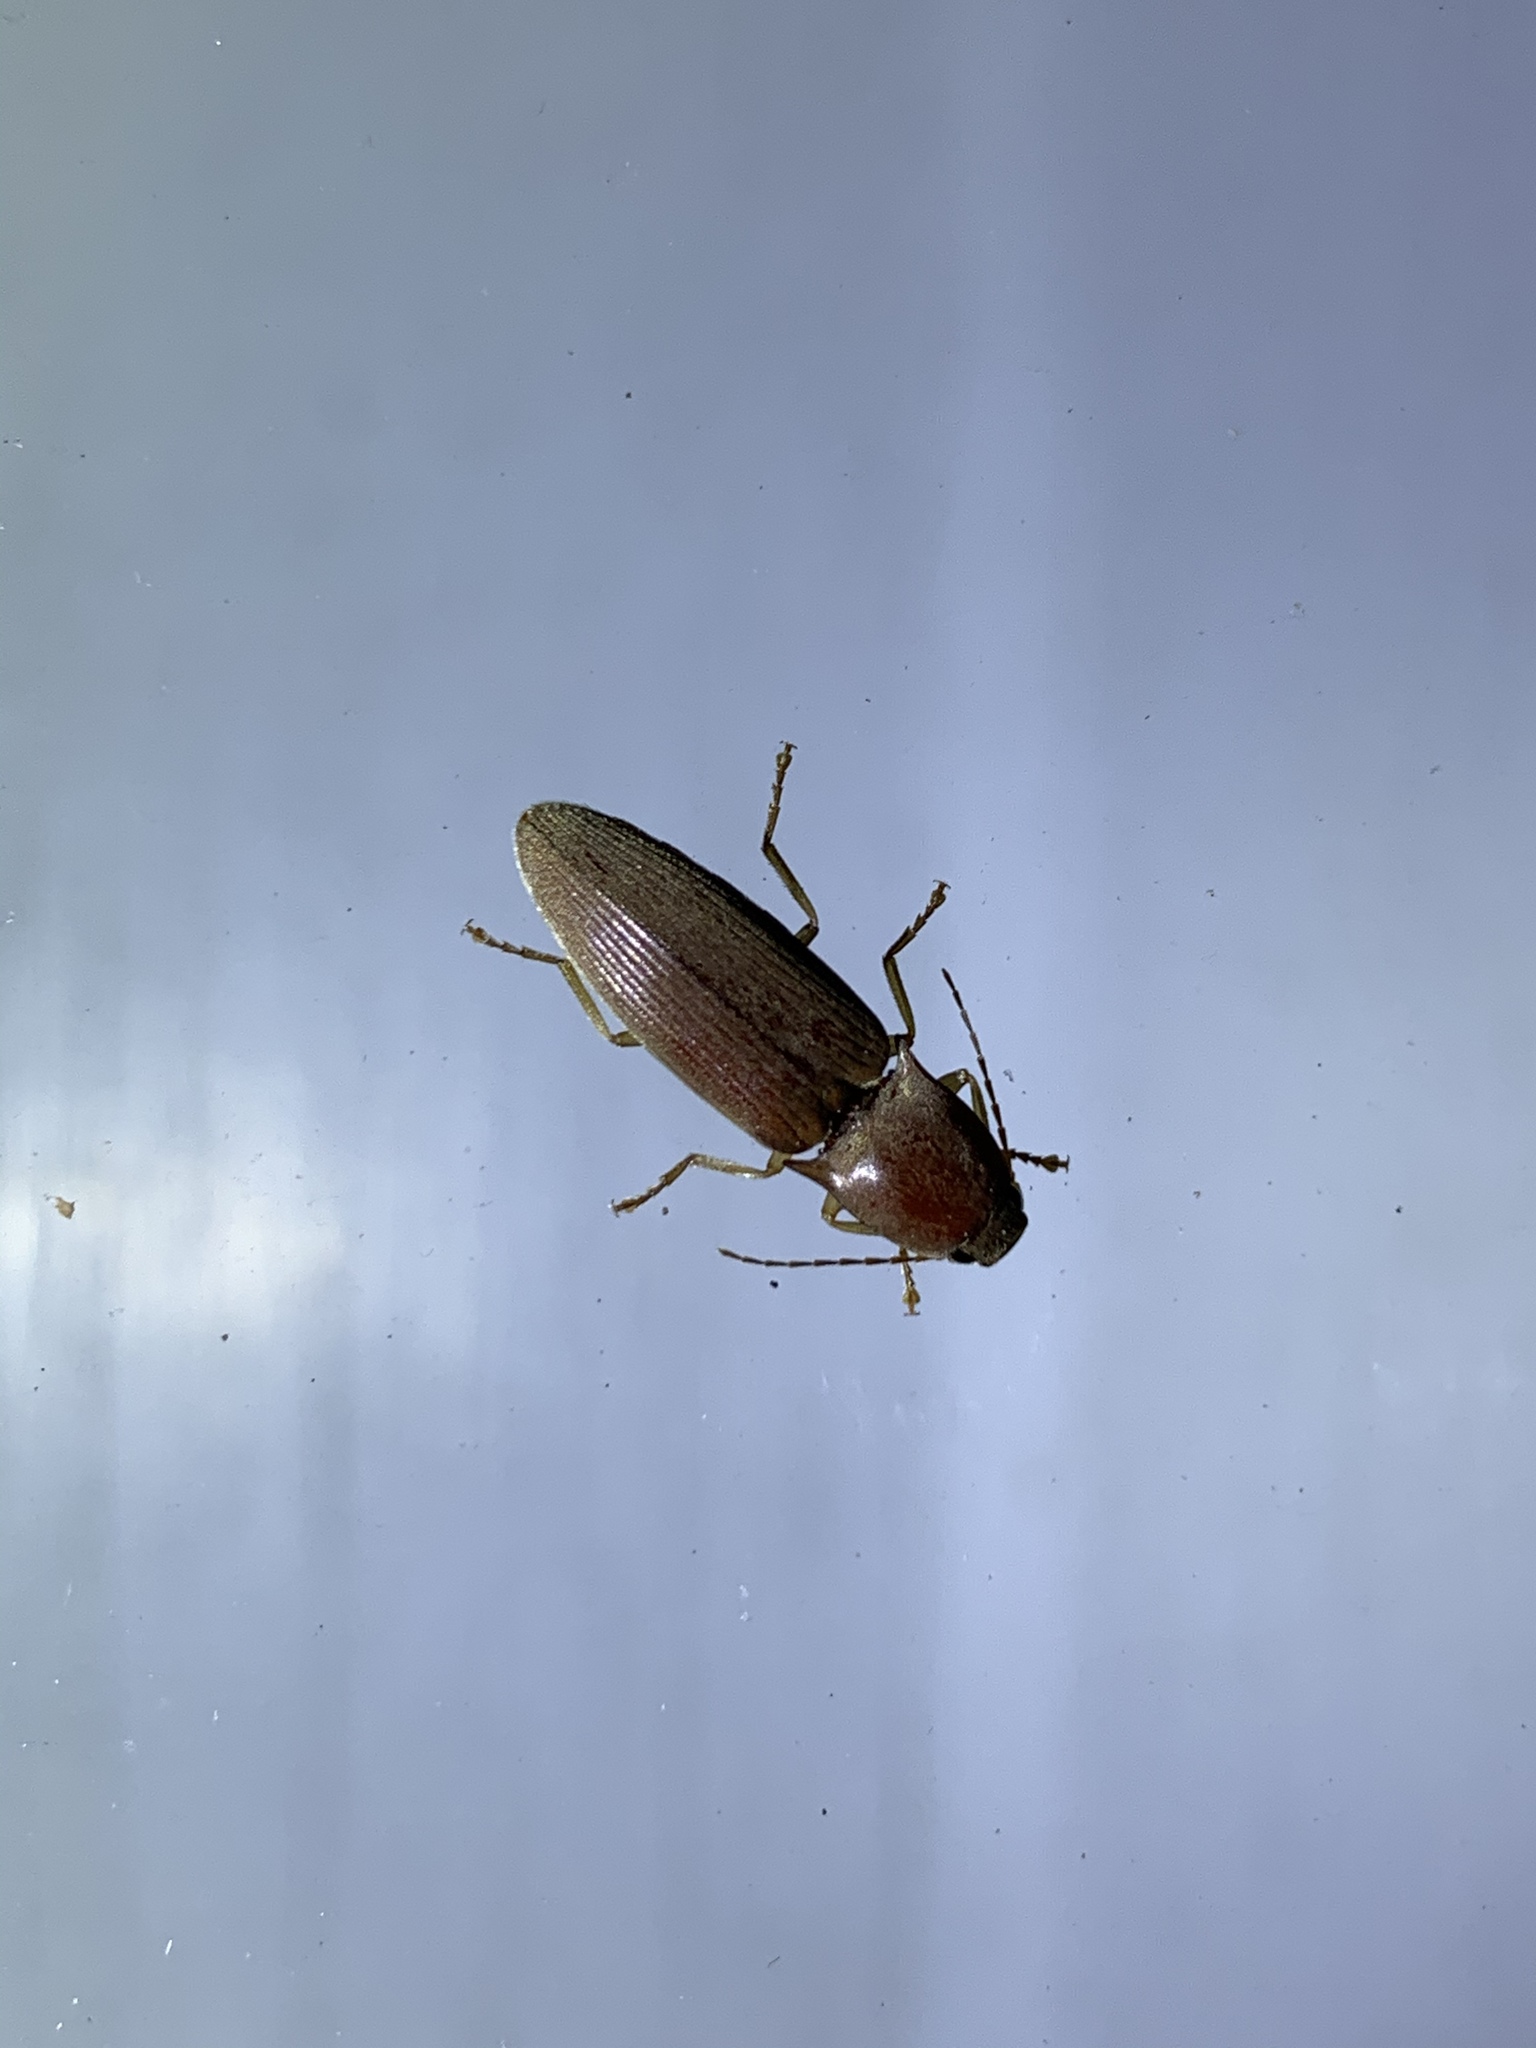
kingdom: Animalia
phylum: Arthropoda
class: Insecta
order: Coleoptera
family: Elateridae
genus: Monocrepidius
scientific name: Monocrepidius lividus
